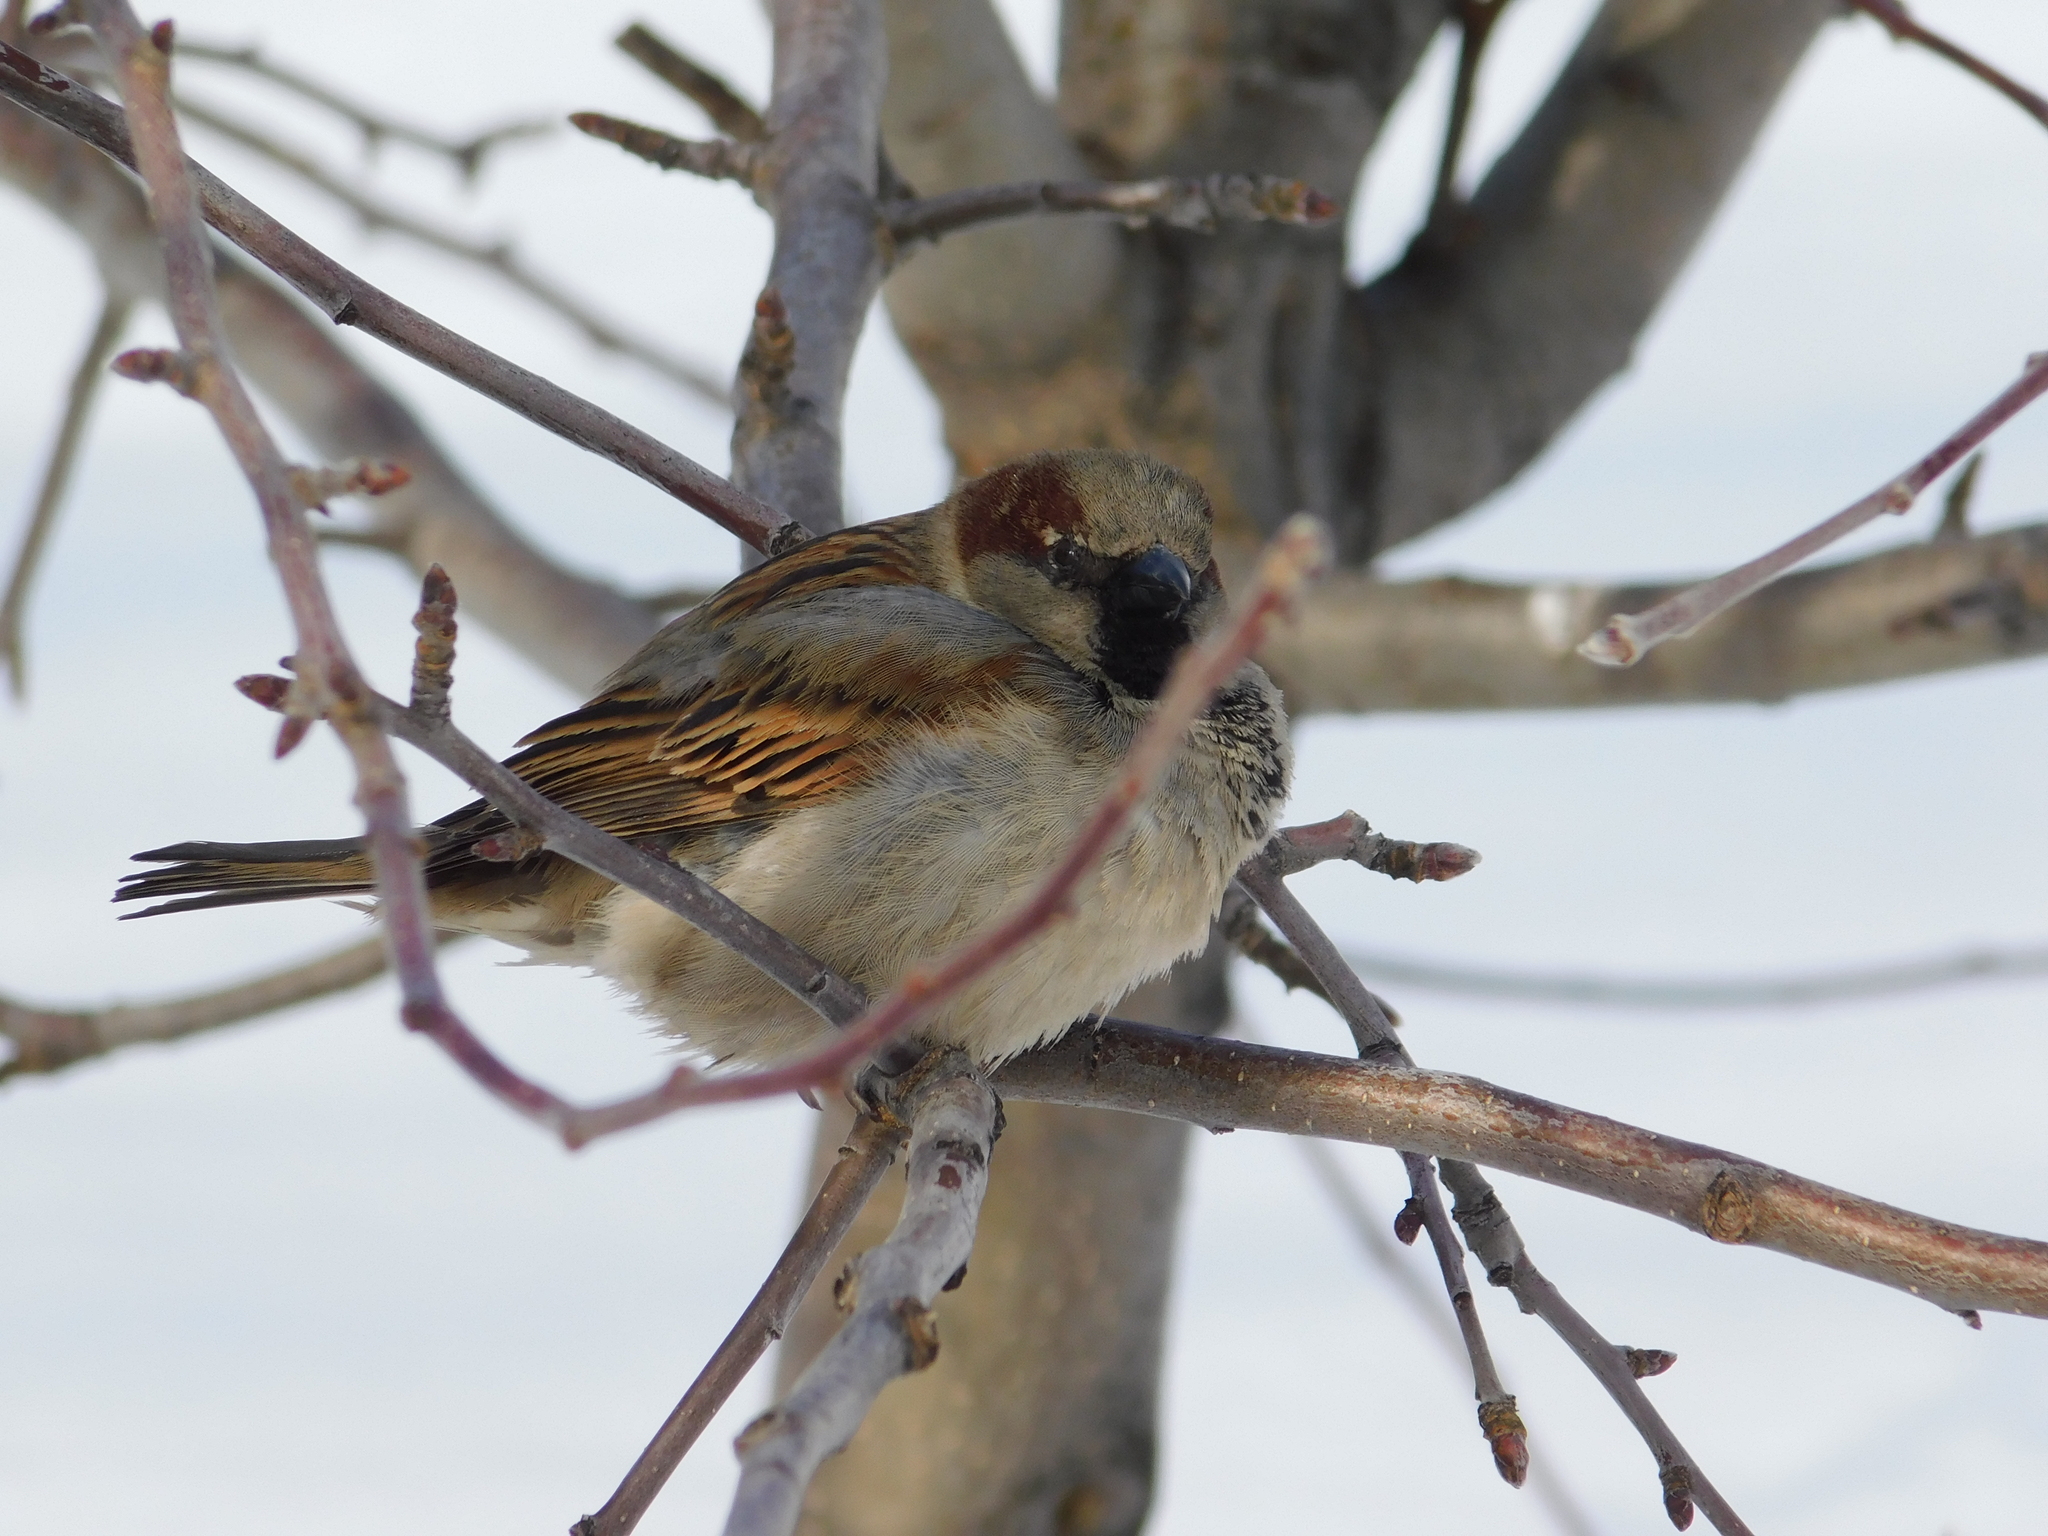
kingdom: Animalia
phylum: Chordata
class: Aves
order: Passeriformes
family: Passeridae
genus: Passer
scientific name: Passer domesticus
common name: House sparrow
